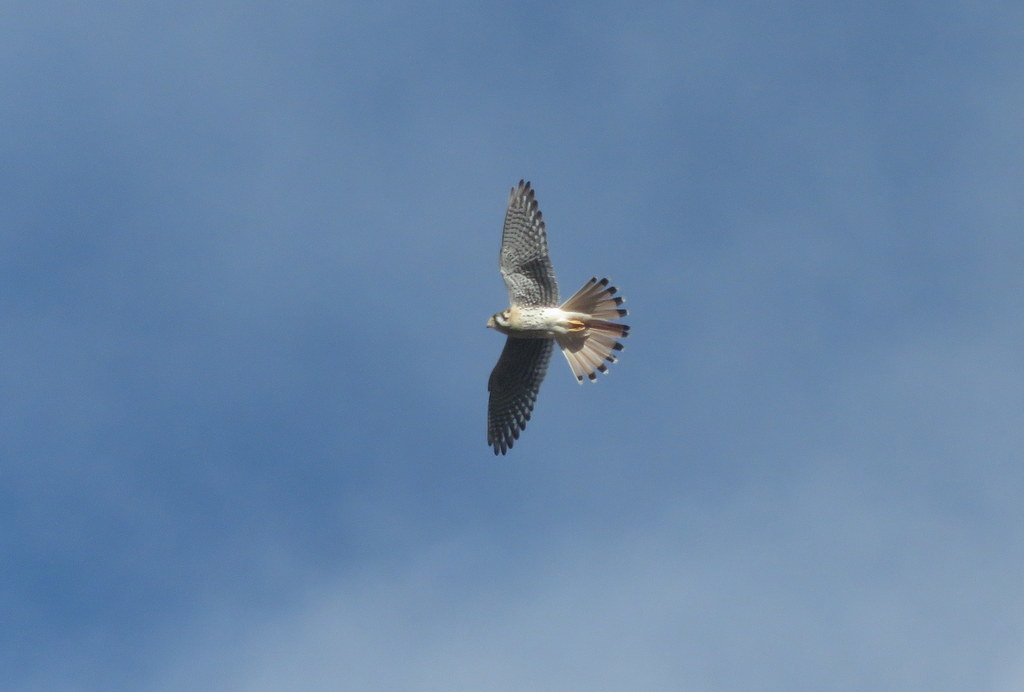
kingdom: Animalia
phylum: Chordata
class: Aves
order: Falconiformes
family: Falconidae
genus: Falco
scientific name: Falco sparverius
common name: American kestrel
